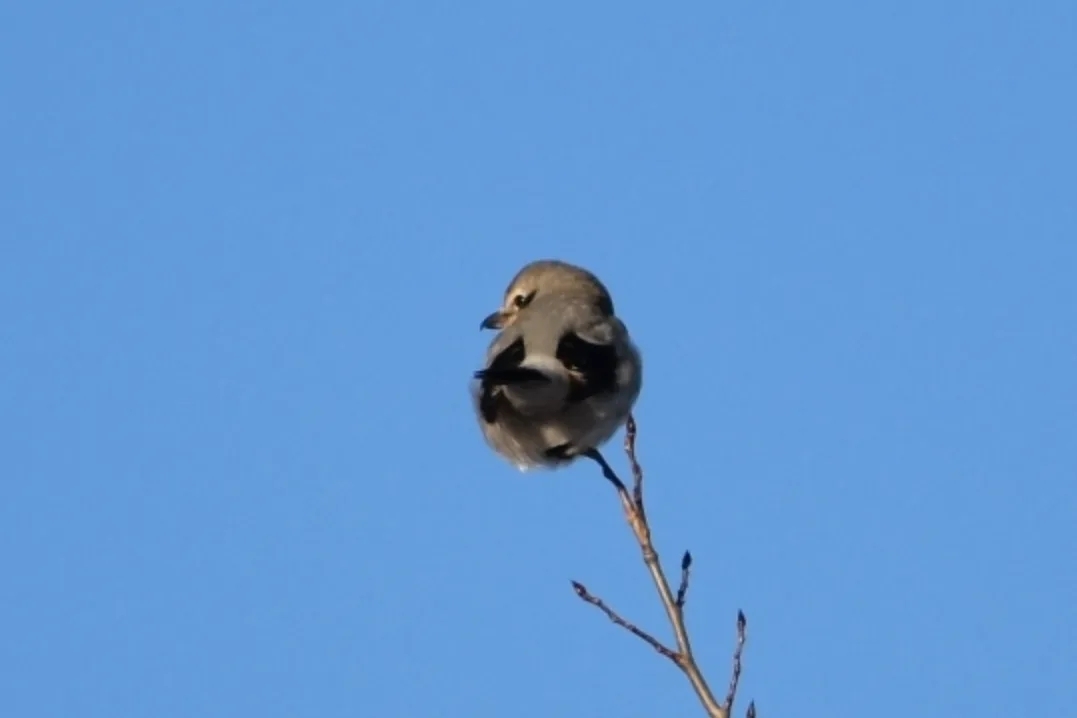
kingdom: Animalia
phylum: Chordata
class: Aves
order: Passeriformes
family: Laniidae
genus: Lanius
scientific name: Lanius borealis
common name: Northern shrike
